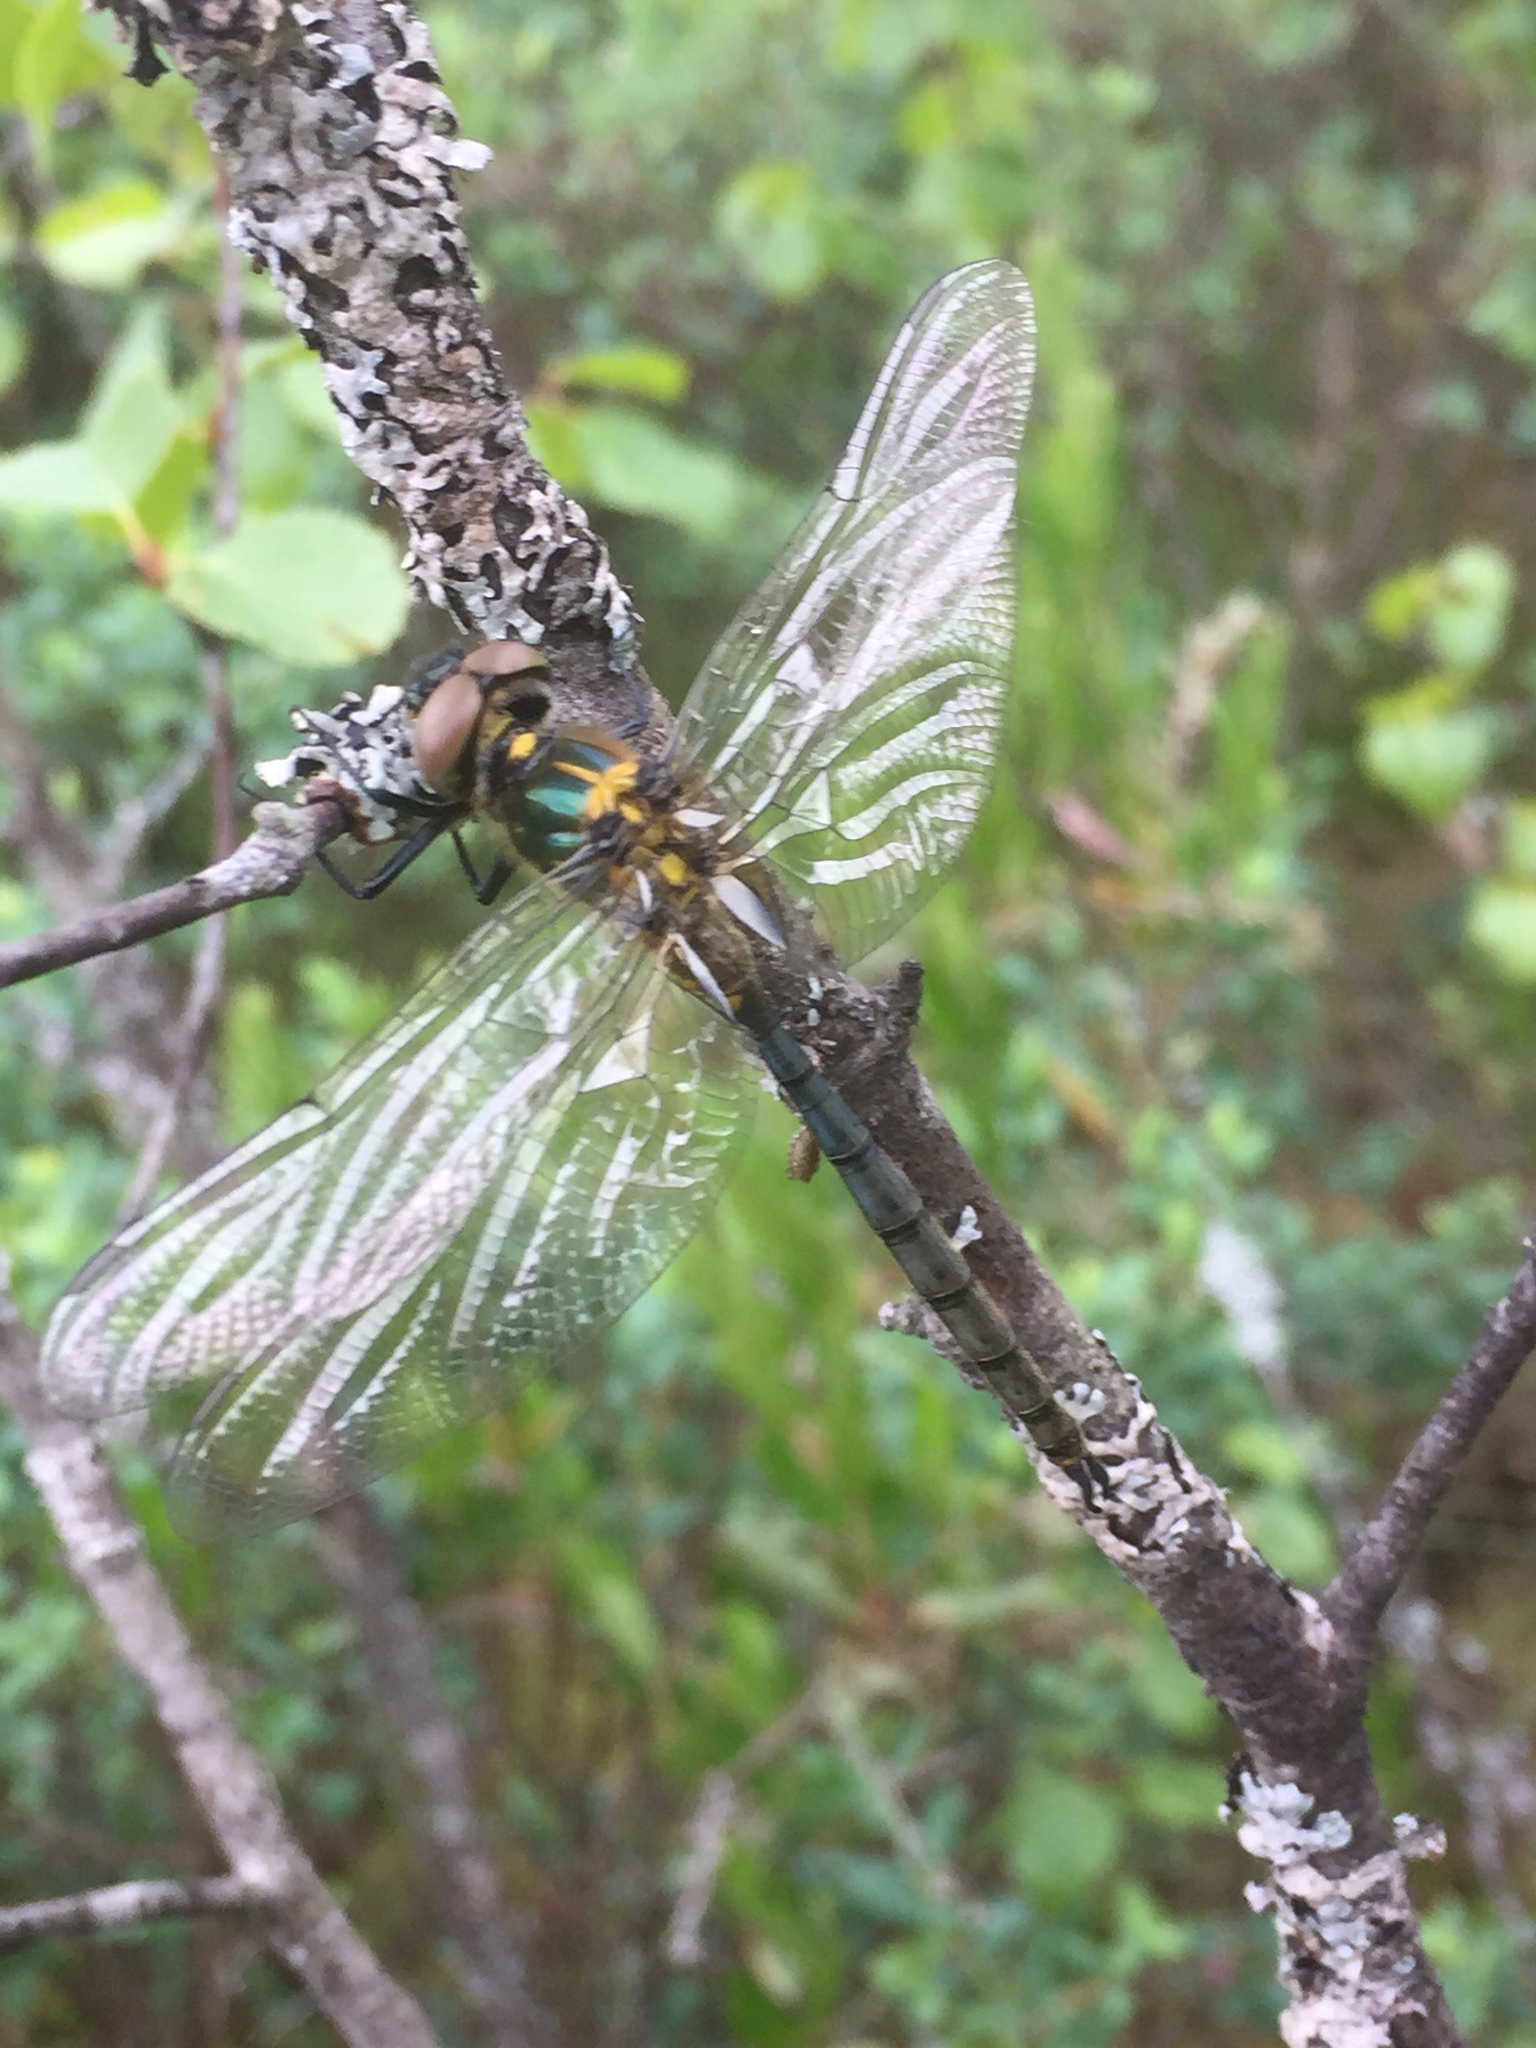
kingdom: Animalia
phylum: Arthropoda
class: Insecta
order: Odonata
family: Corduliidae
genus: Somatochlora
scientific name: Somatochlora arctica
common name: Northern emerald
